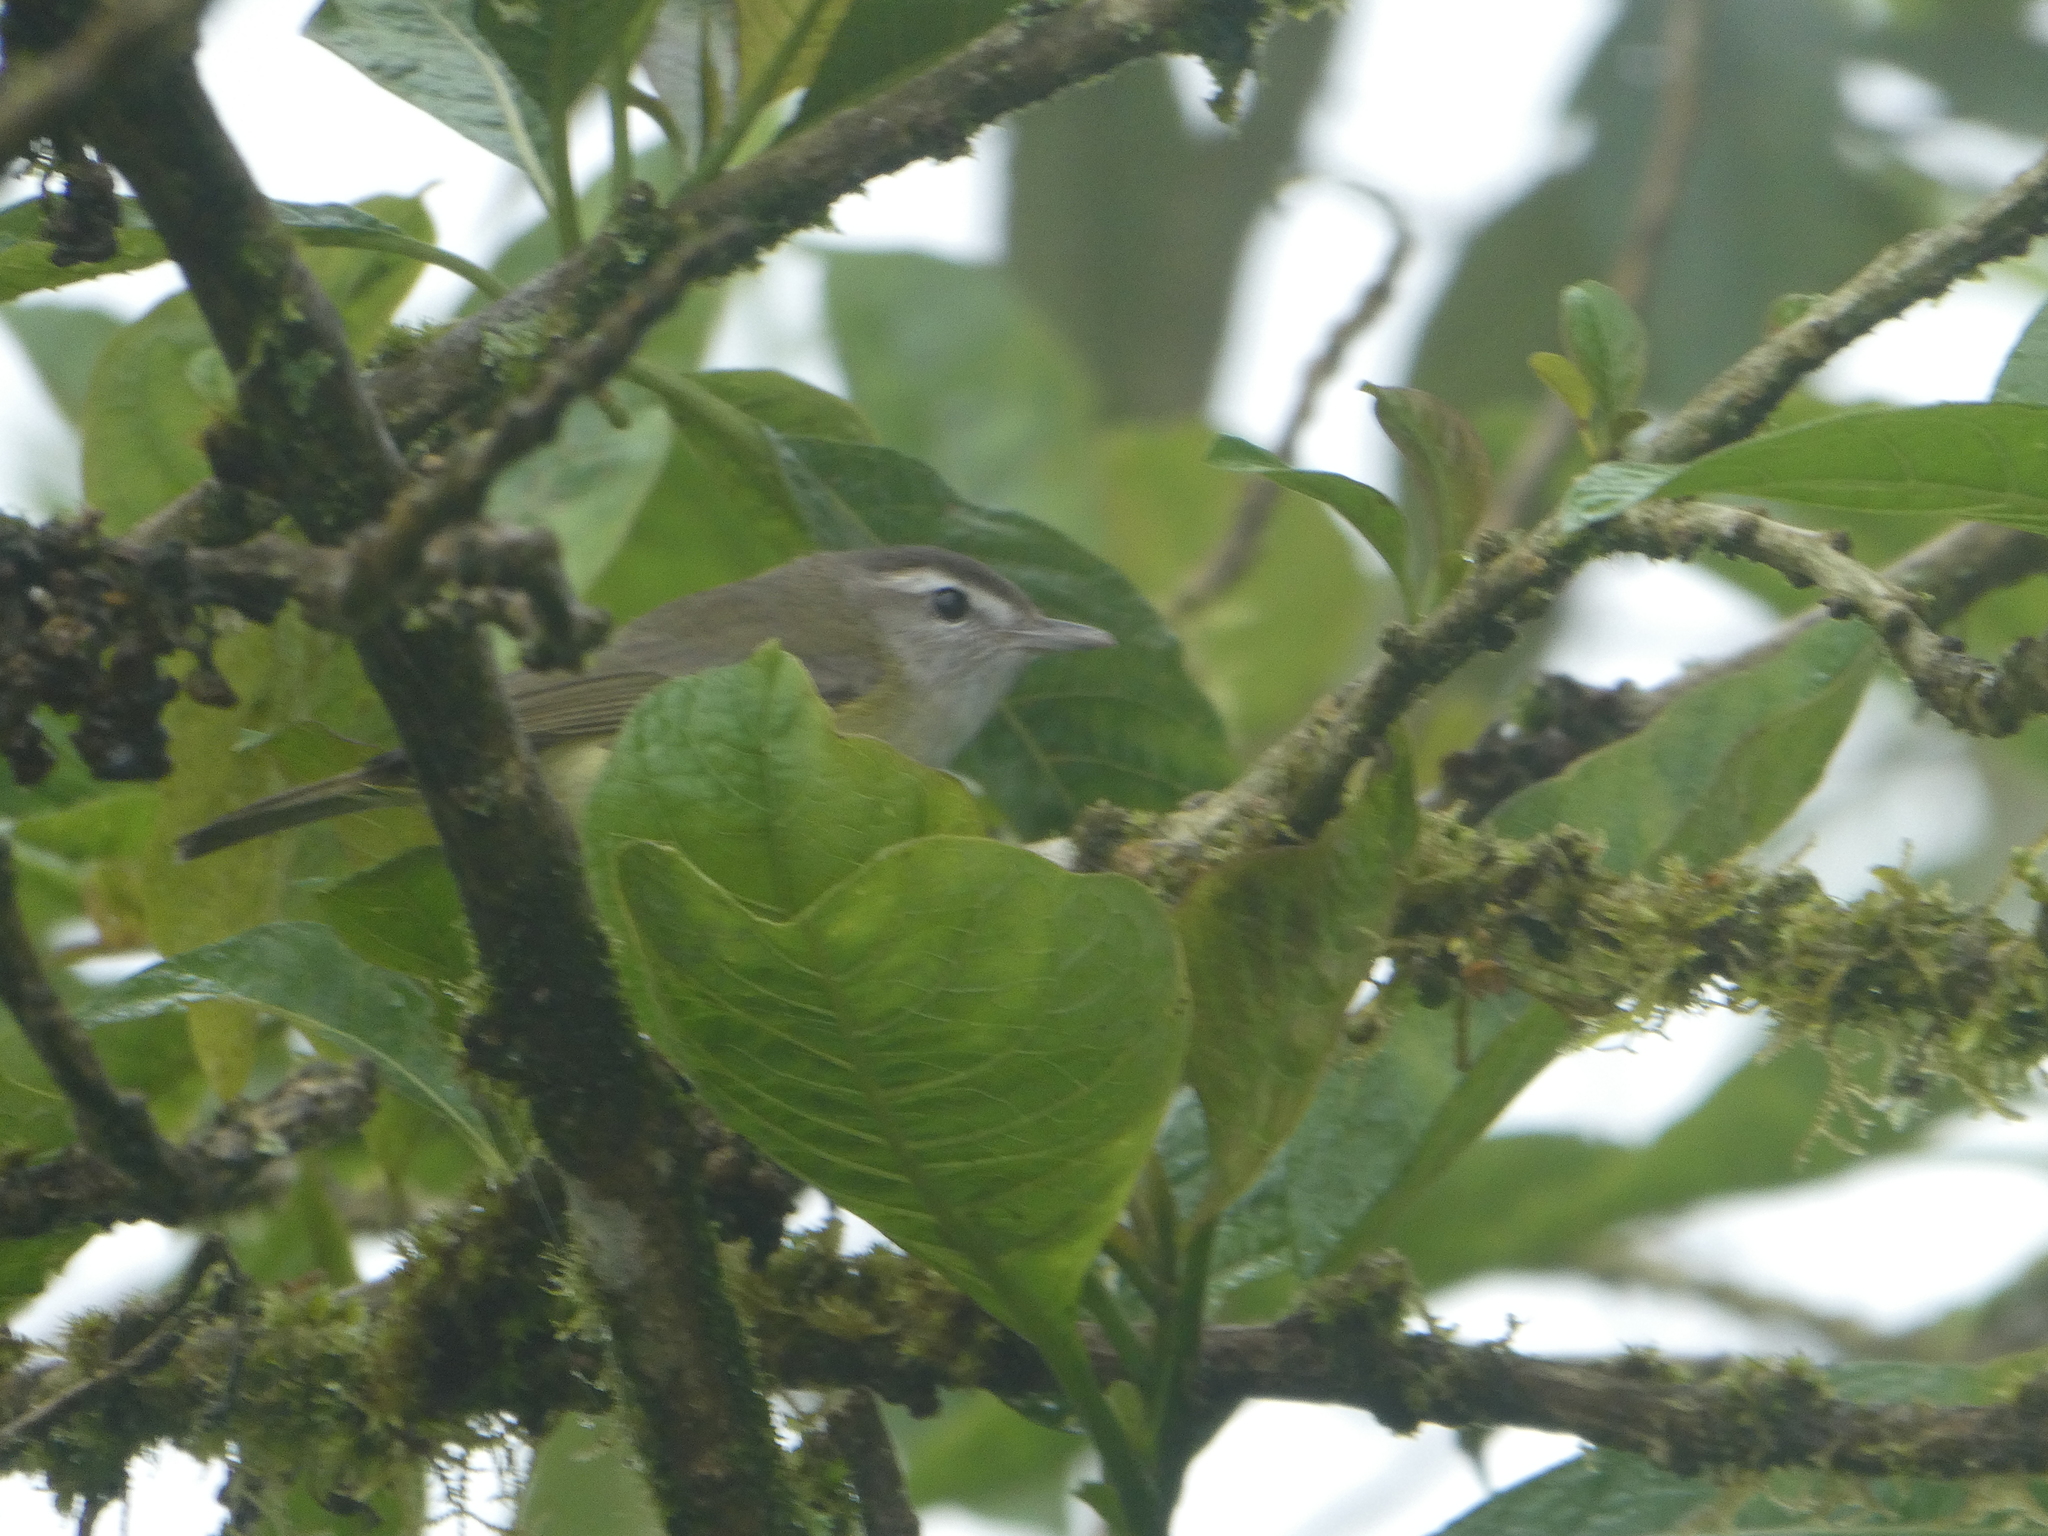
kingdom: Animalia
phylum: Chordata
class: Aves
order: Passeriformes
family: Vireonidae
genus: Vireo
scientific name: Vireo leucophrys
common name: Brown-capped vireo
